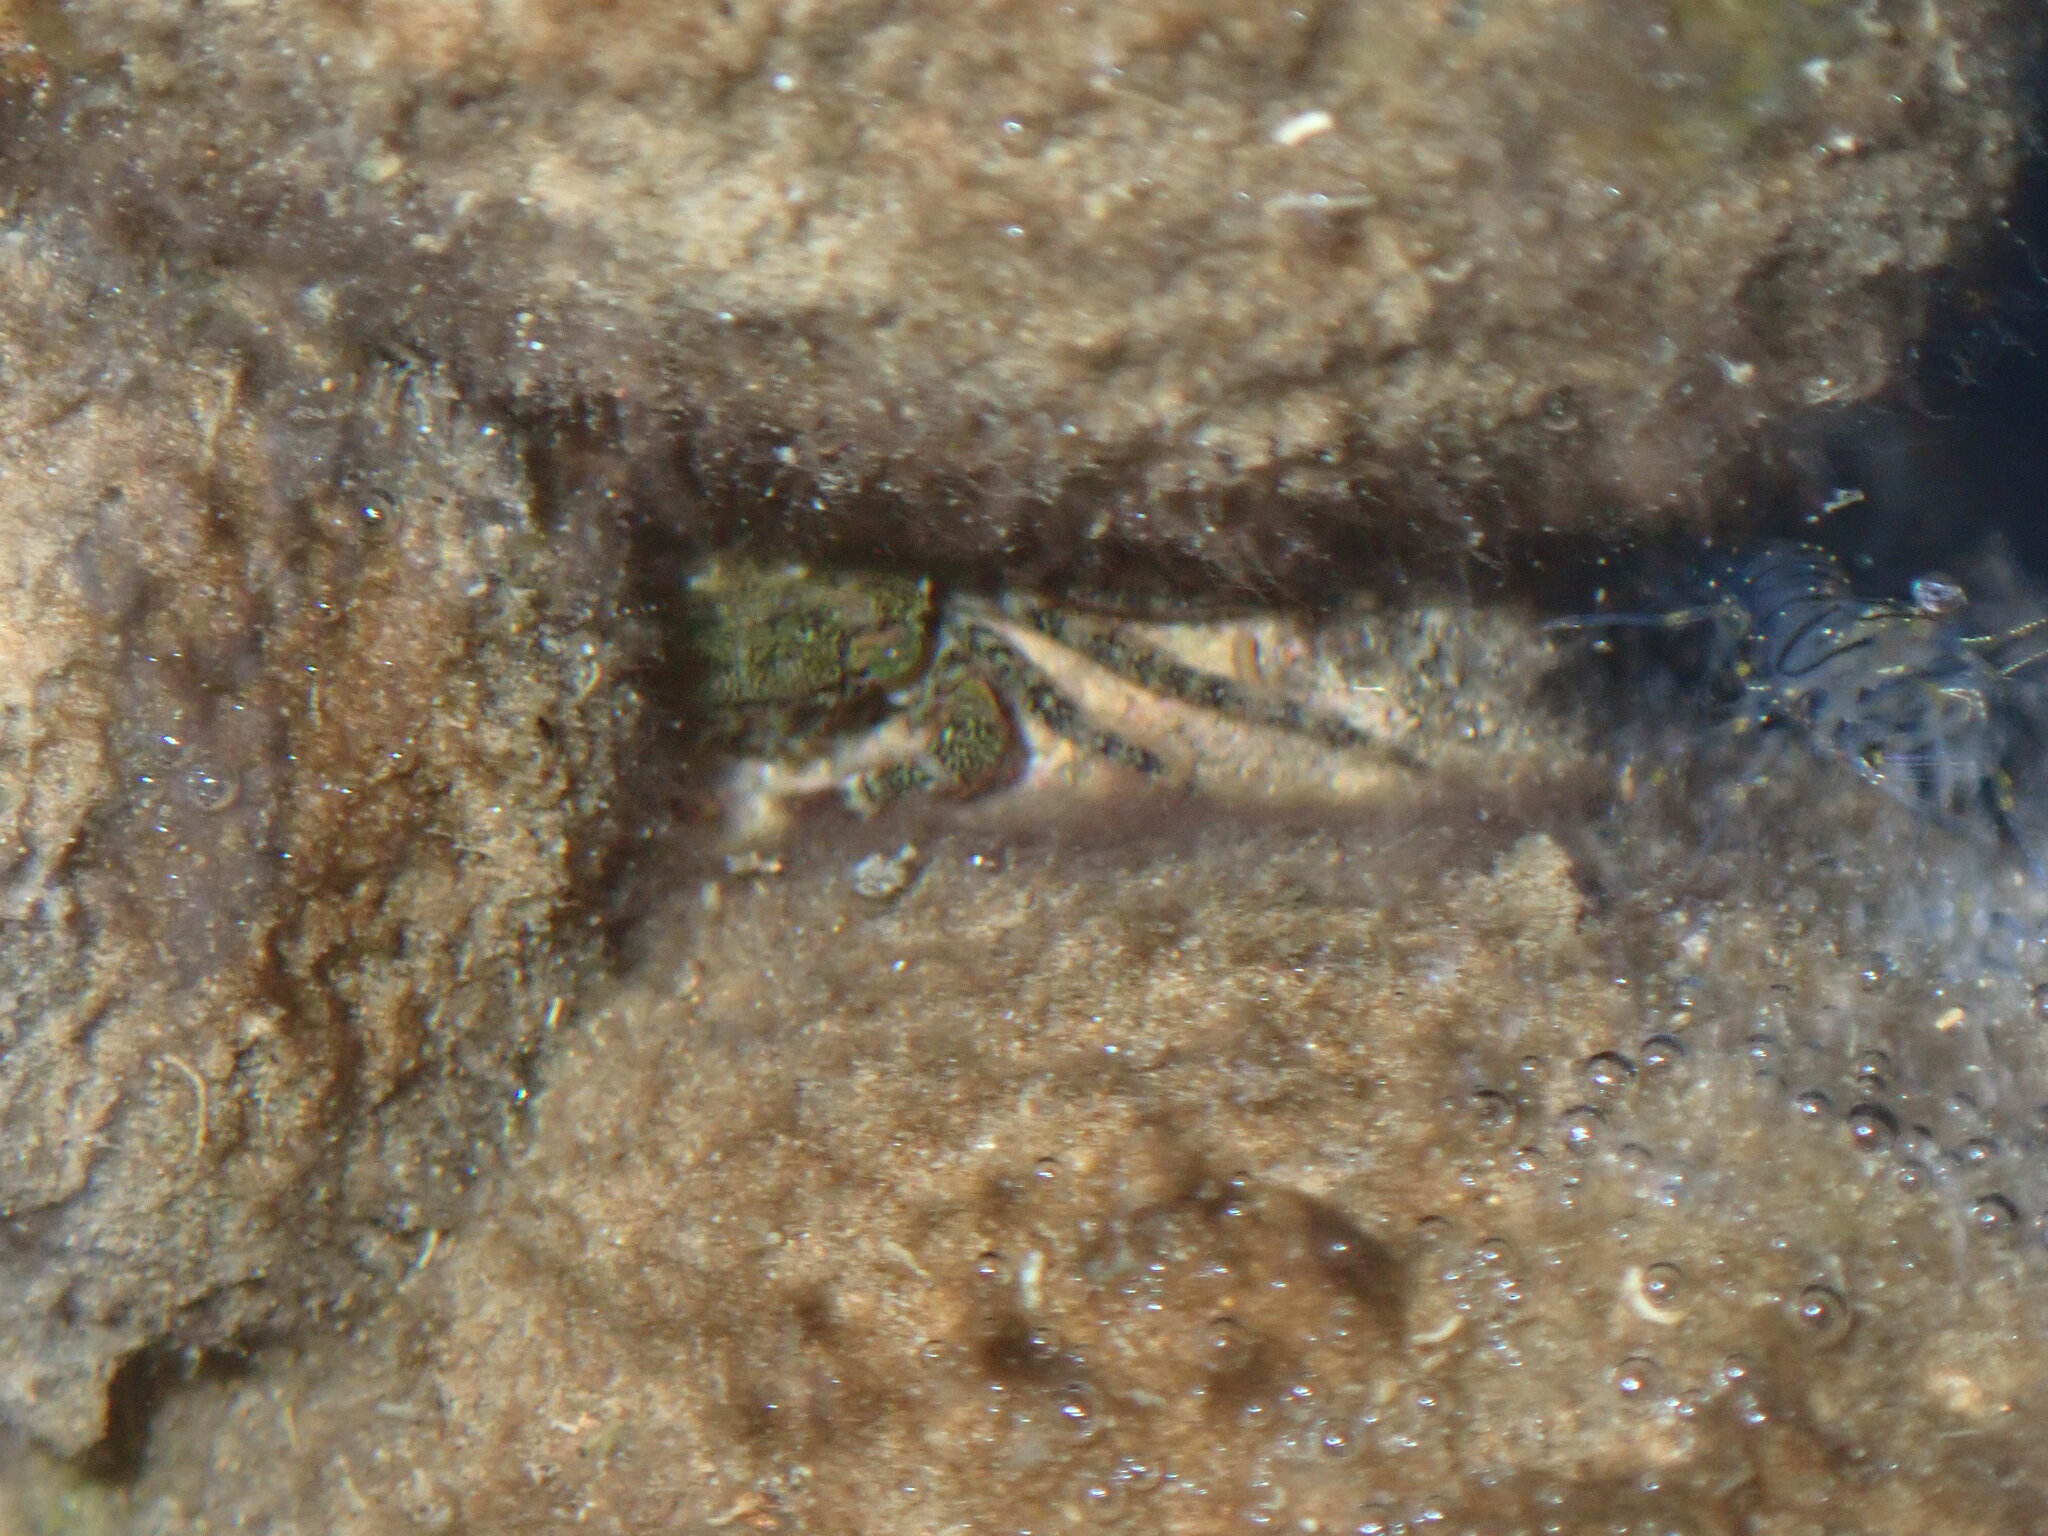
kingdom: Animalia
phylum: Arthropoda
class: Malacostraca
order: Decapoda
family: Grapsidae
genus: Pachygrapsus
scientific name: Pachygrapsus marmoratus
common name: Marbled rock crab
